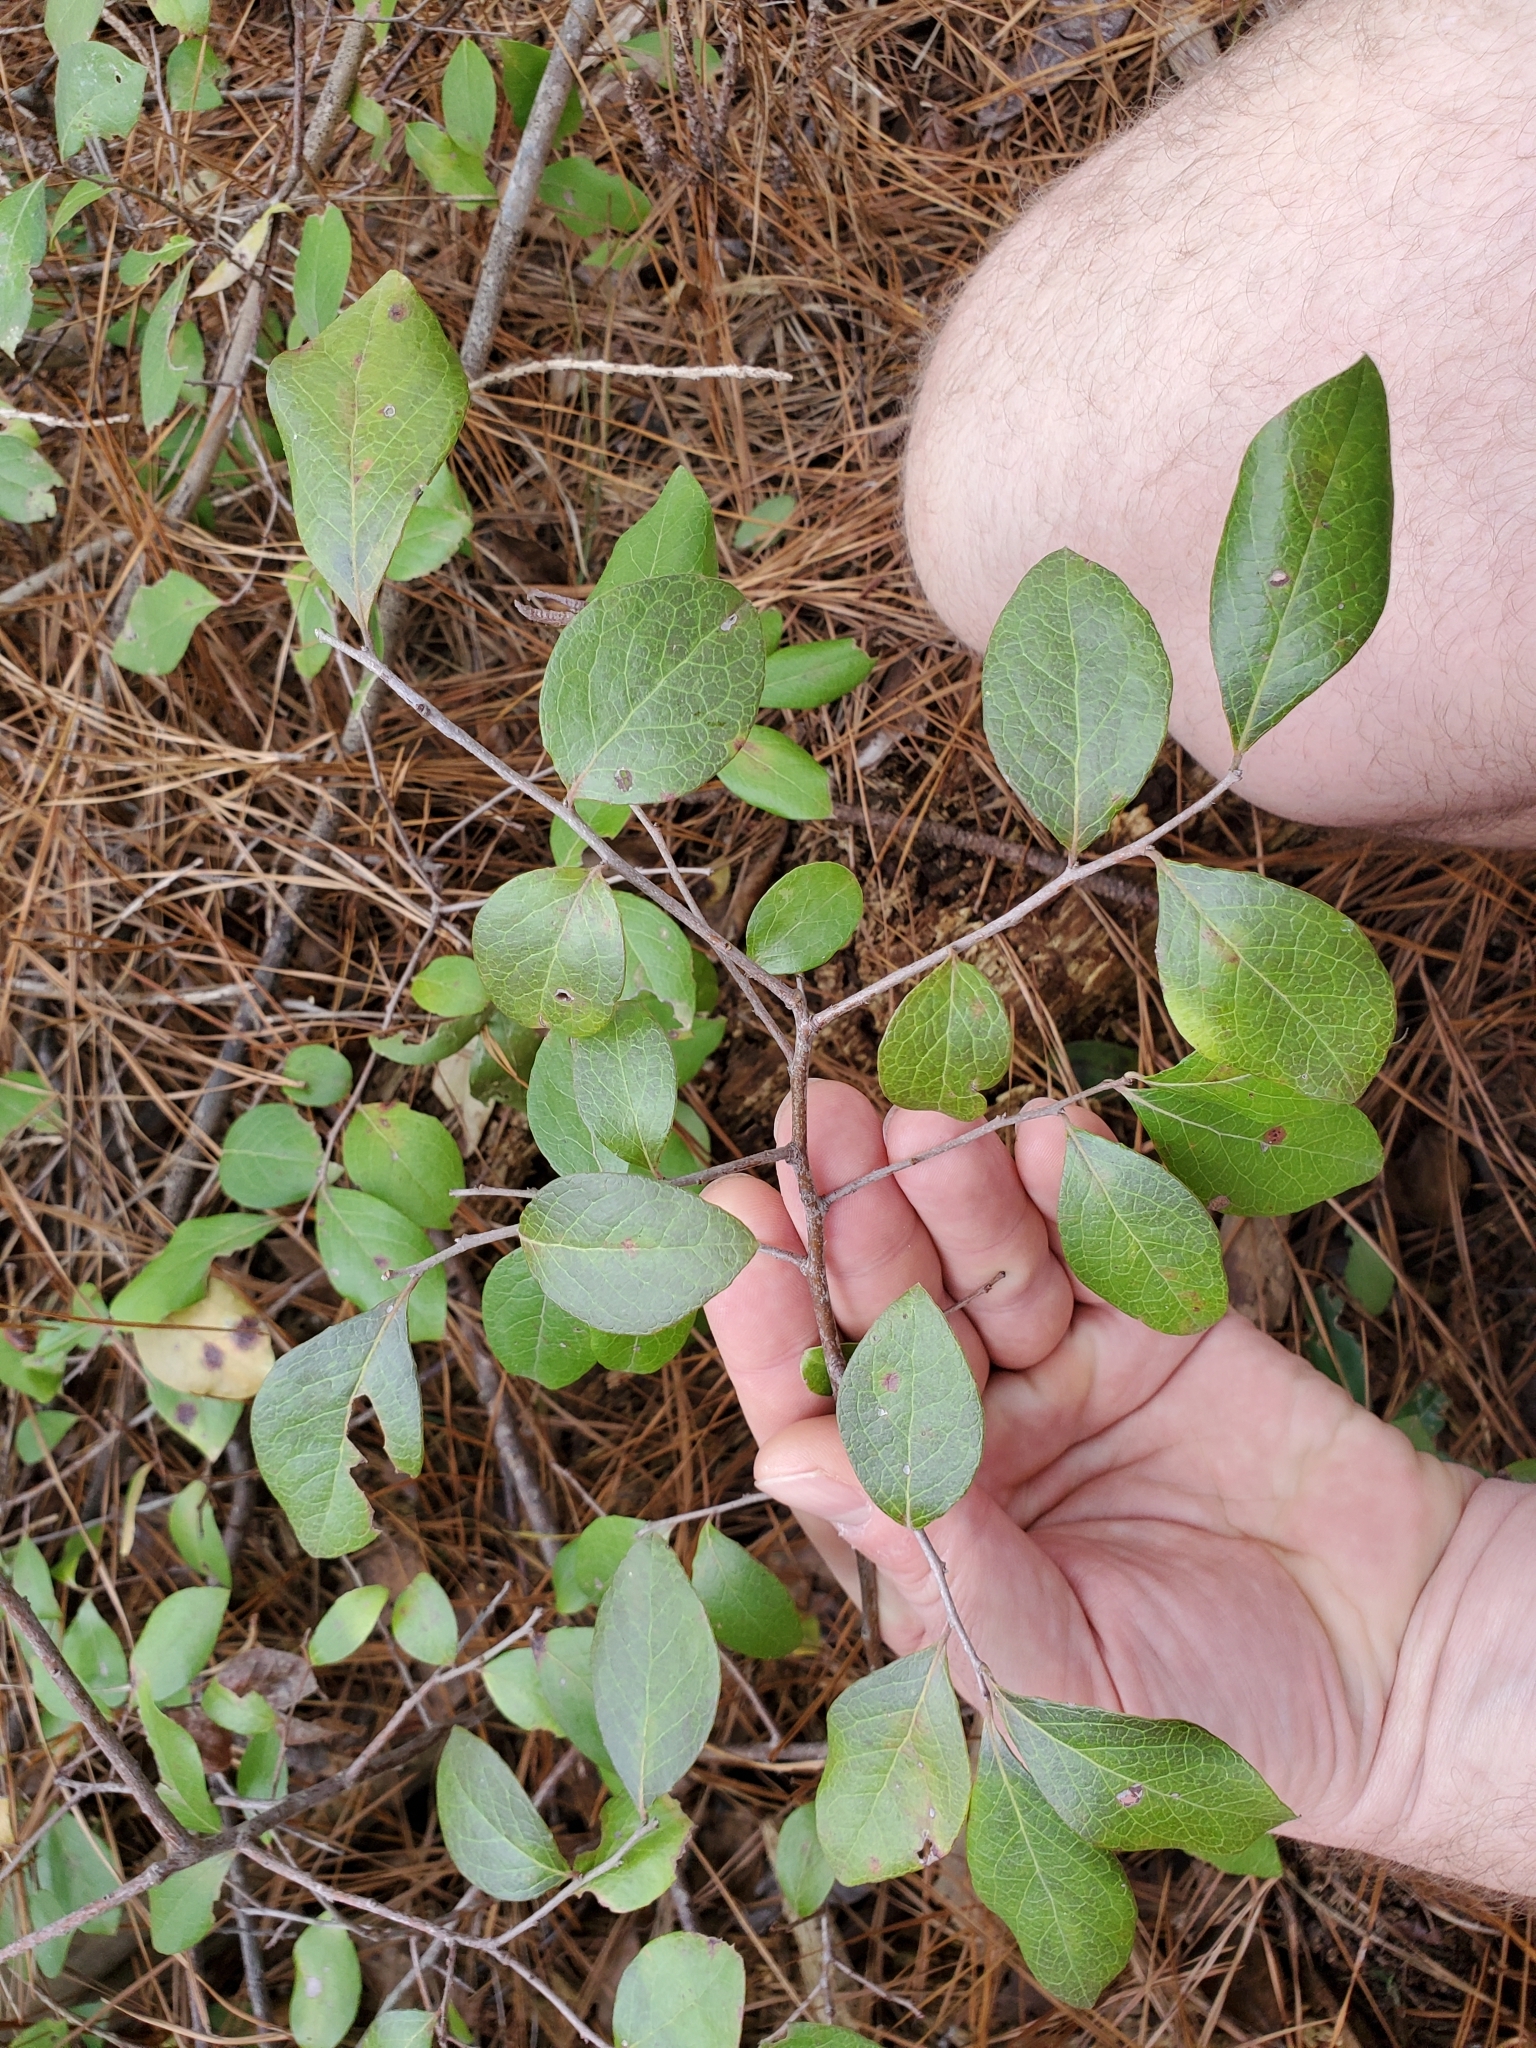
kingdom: Plantae
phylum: Tracheophyta
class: Magnoliopsida
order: Ericales
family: Ericaceae
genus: Vaccinium
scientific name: Vaccinium arboreum
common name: Farkleberry
